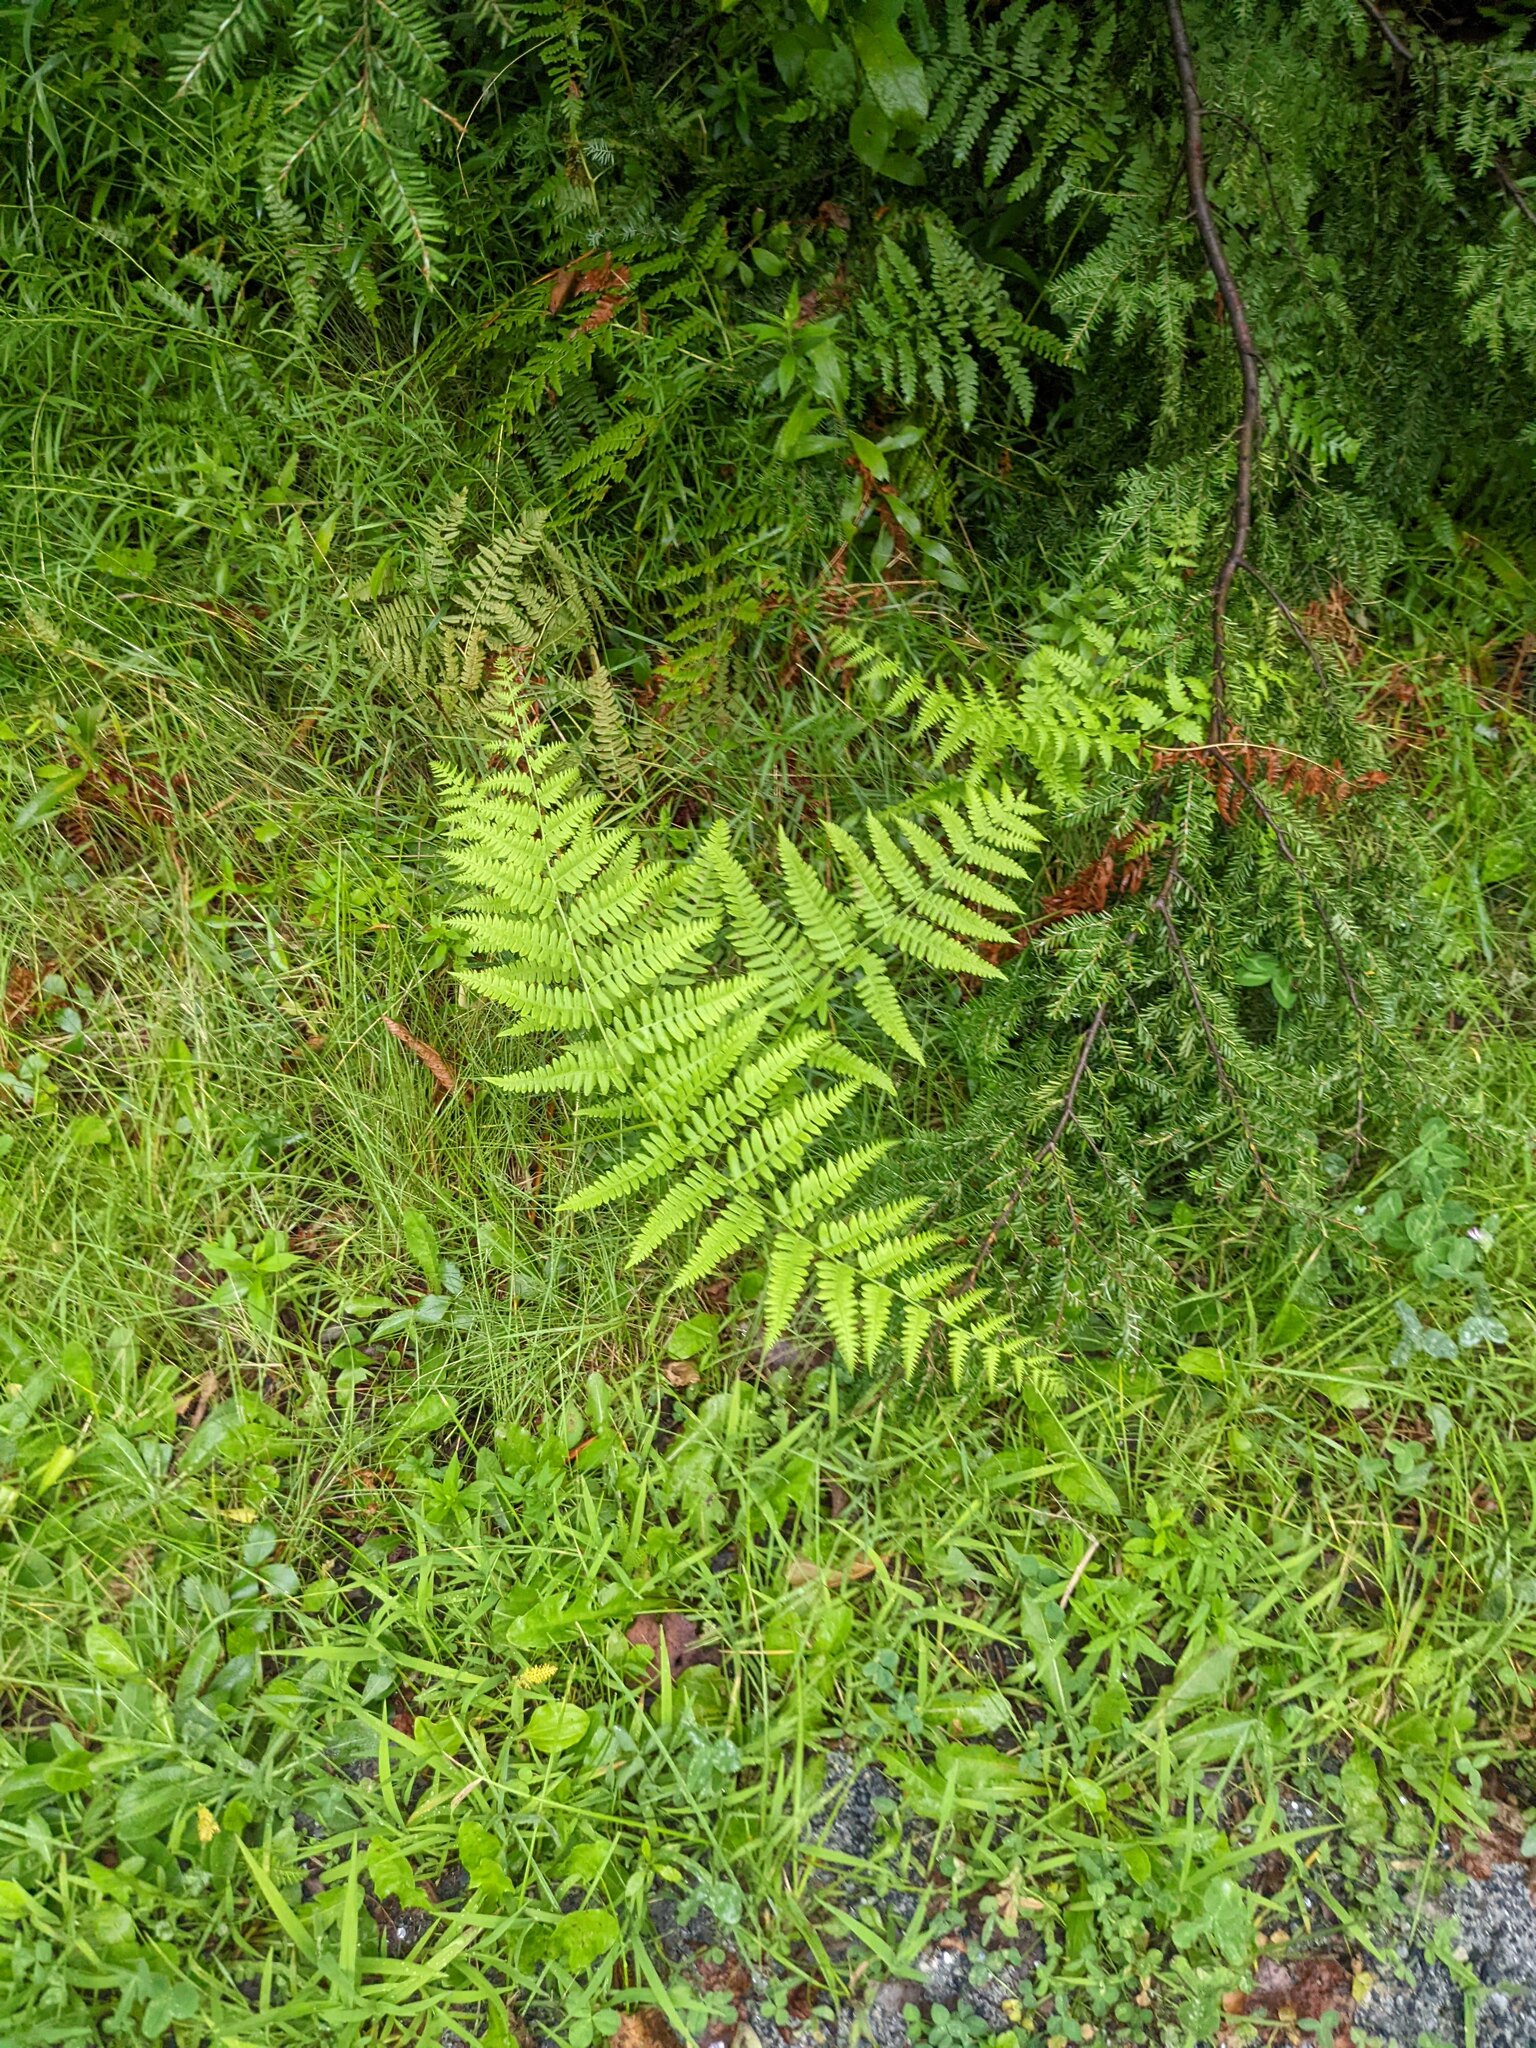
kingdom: Plantae
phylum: Tracheophyta
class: Polypodiopsida
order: Polypodiales
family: Dennstaedtiaceae
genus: Pteridium
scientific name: Pteridium aquilinum
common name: Bracken
